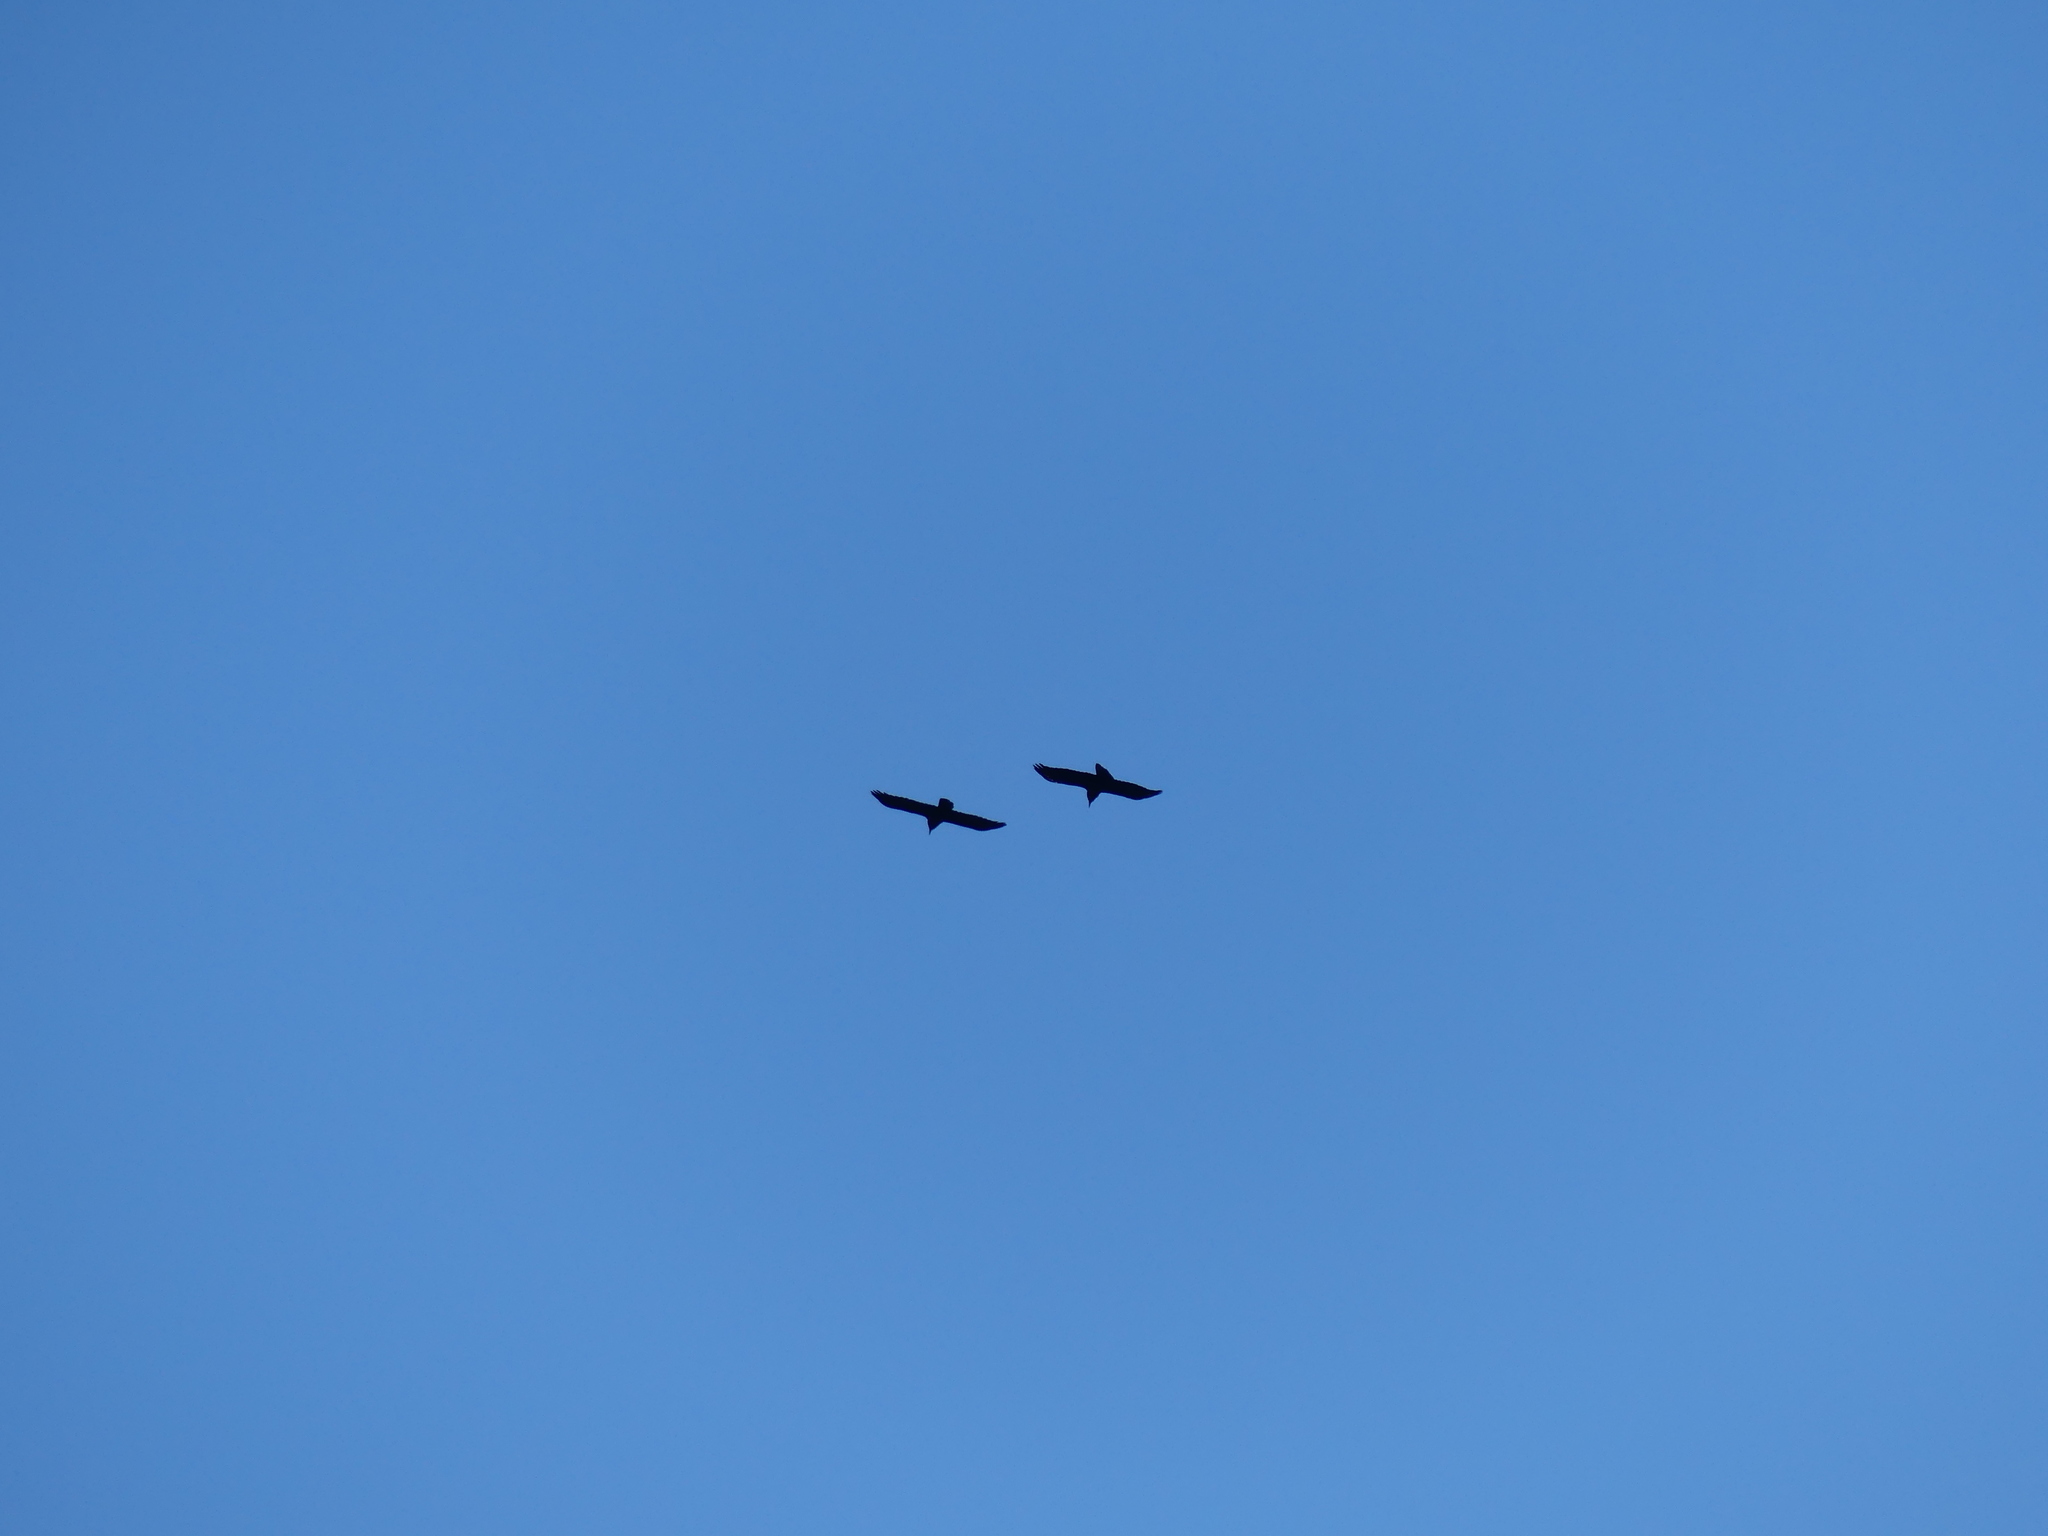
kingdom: Animalia
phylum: Chordata
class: Aves
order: Passeriformes
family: Corvidae
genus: Corvus
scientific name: Corvus corax
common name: Common raven
